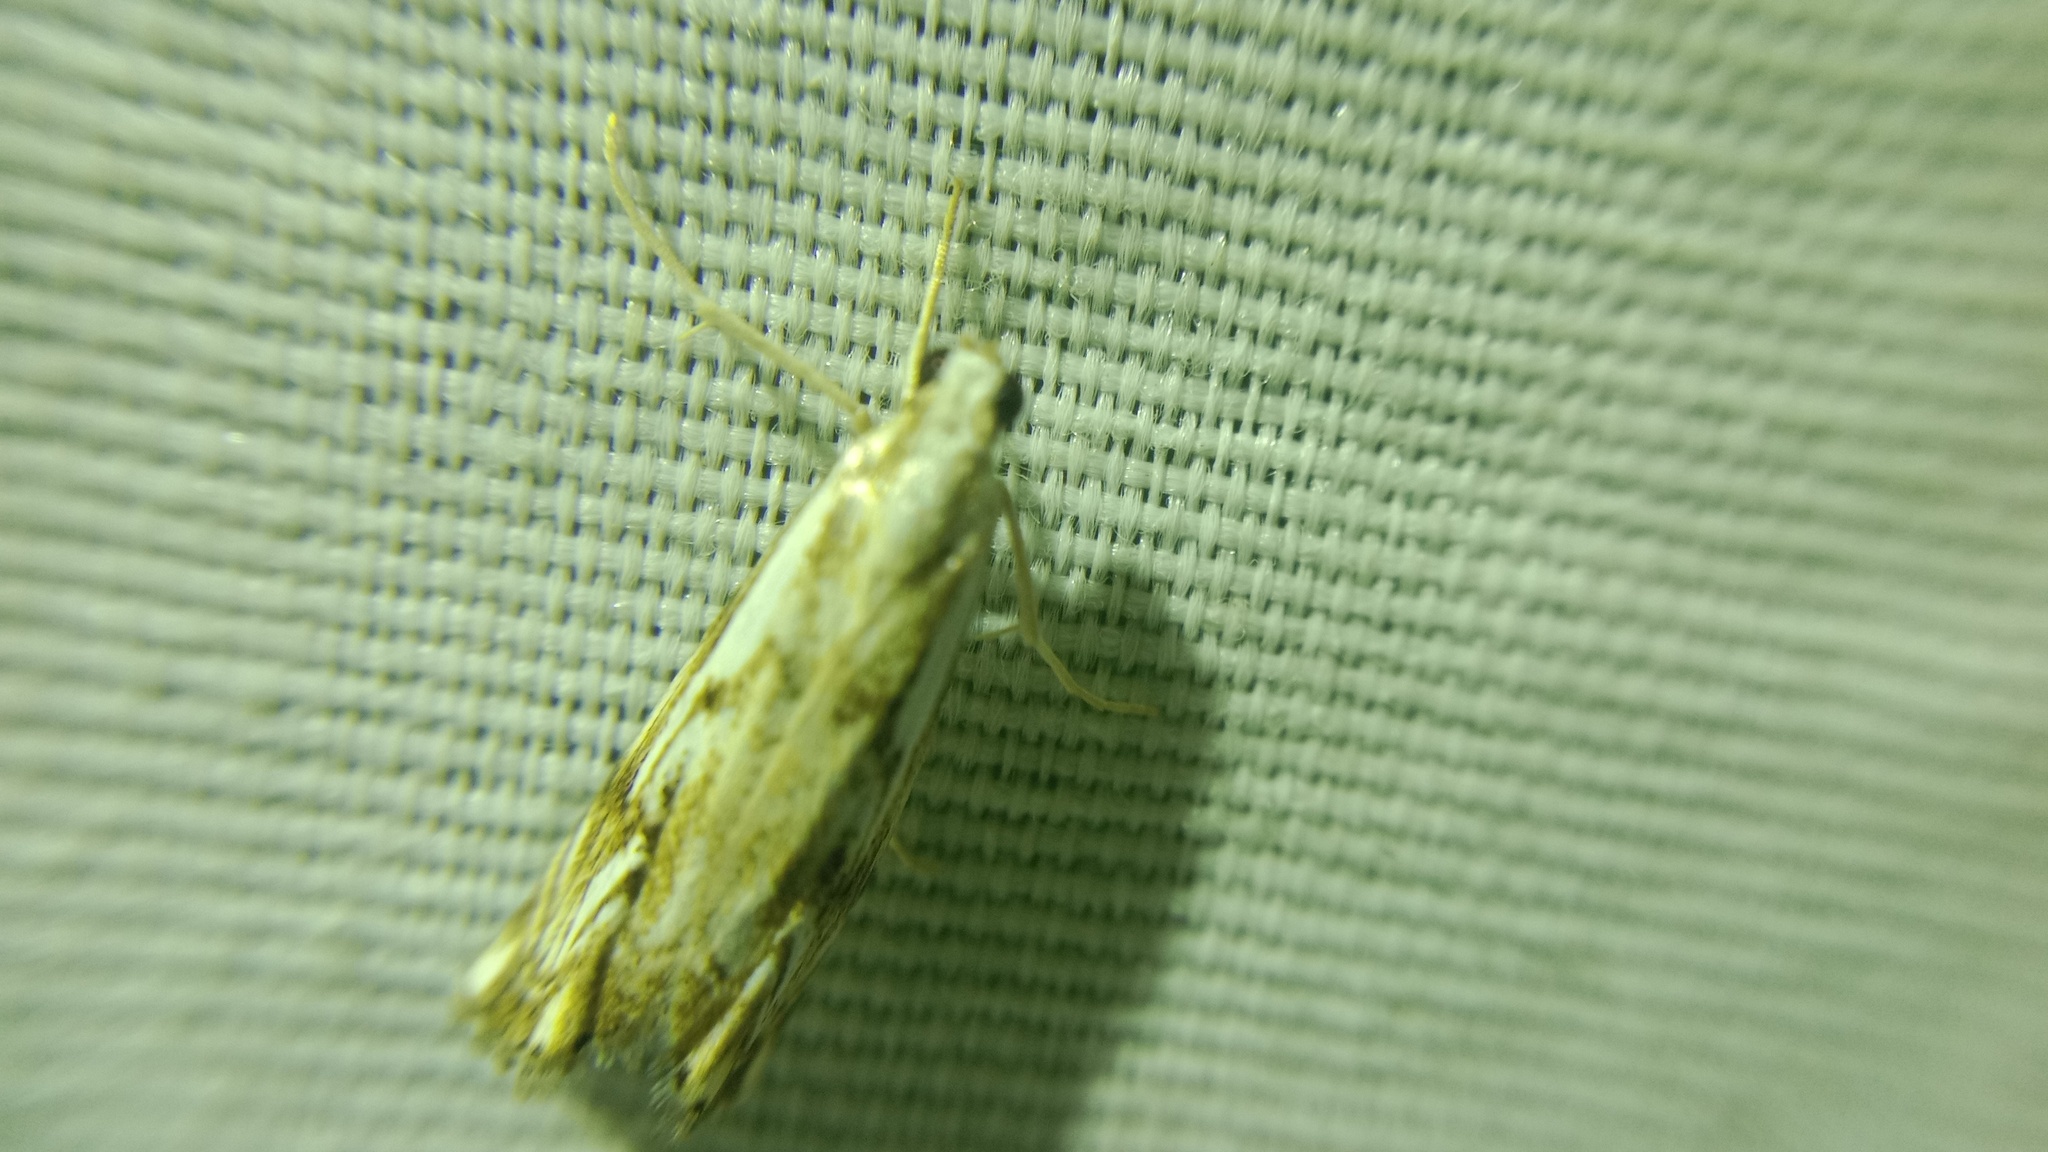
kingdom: Animalia
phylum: Arthropoda
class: Insecta
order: Lepidoptera
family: Crambidae
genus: Catoptria
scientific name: Catoptria falsella
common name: Chequered grass-veneer
